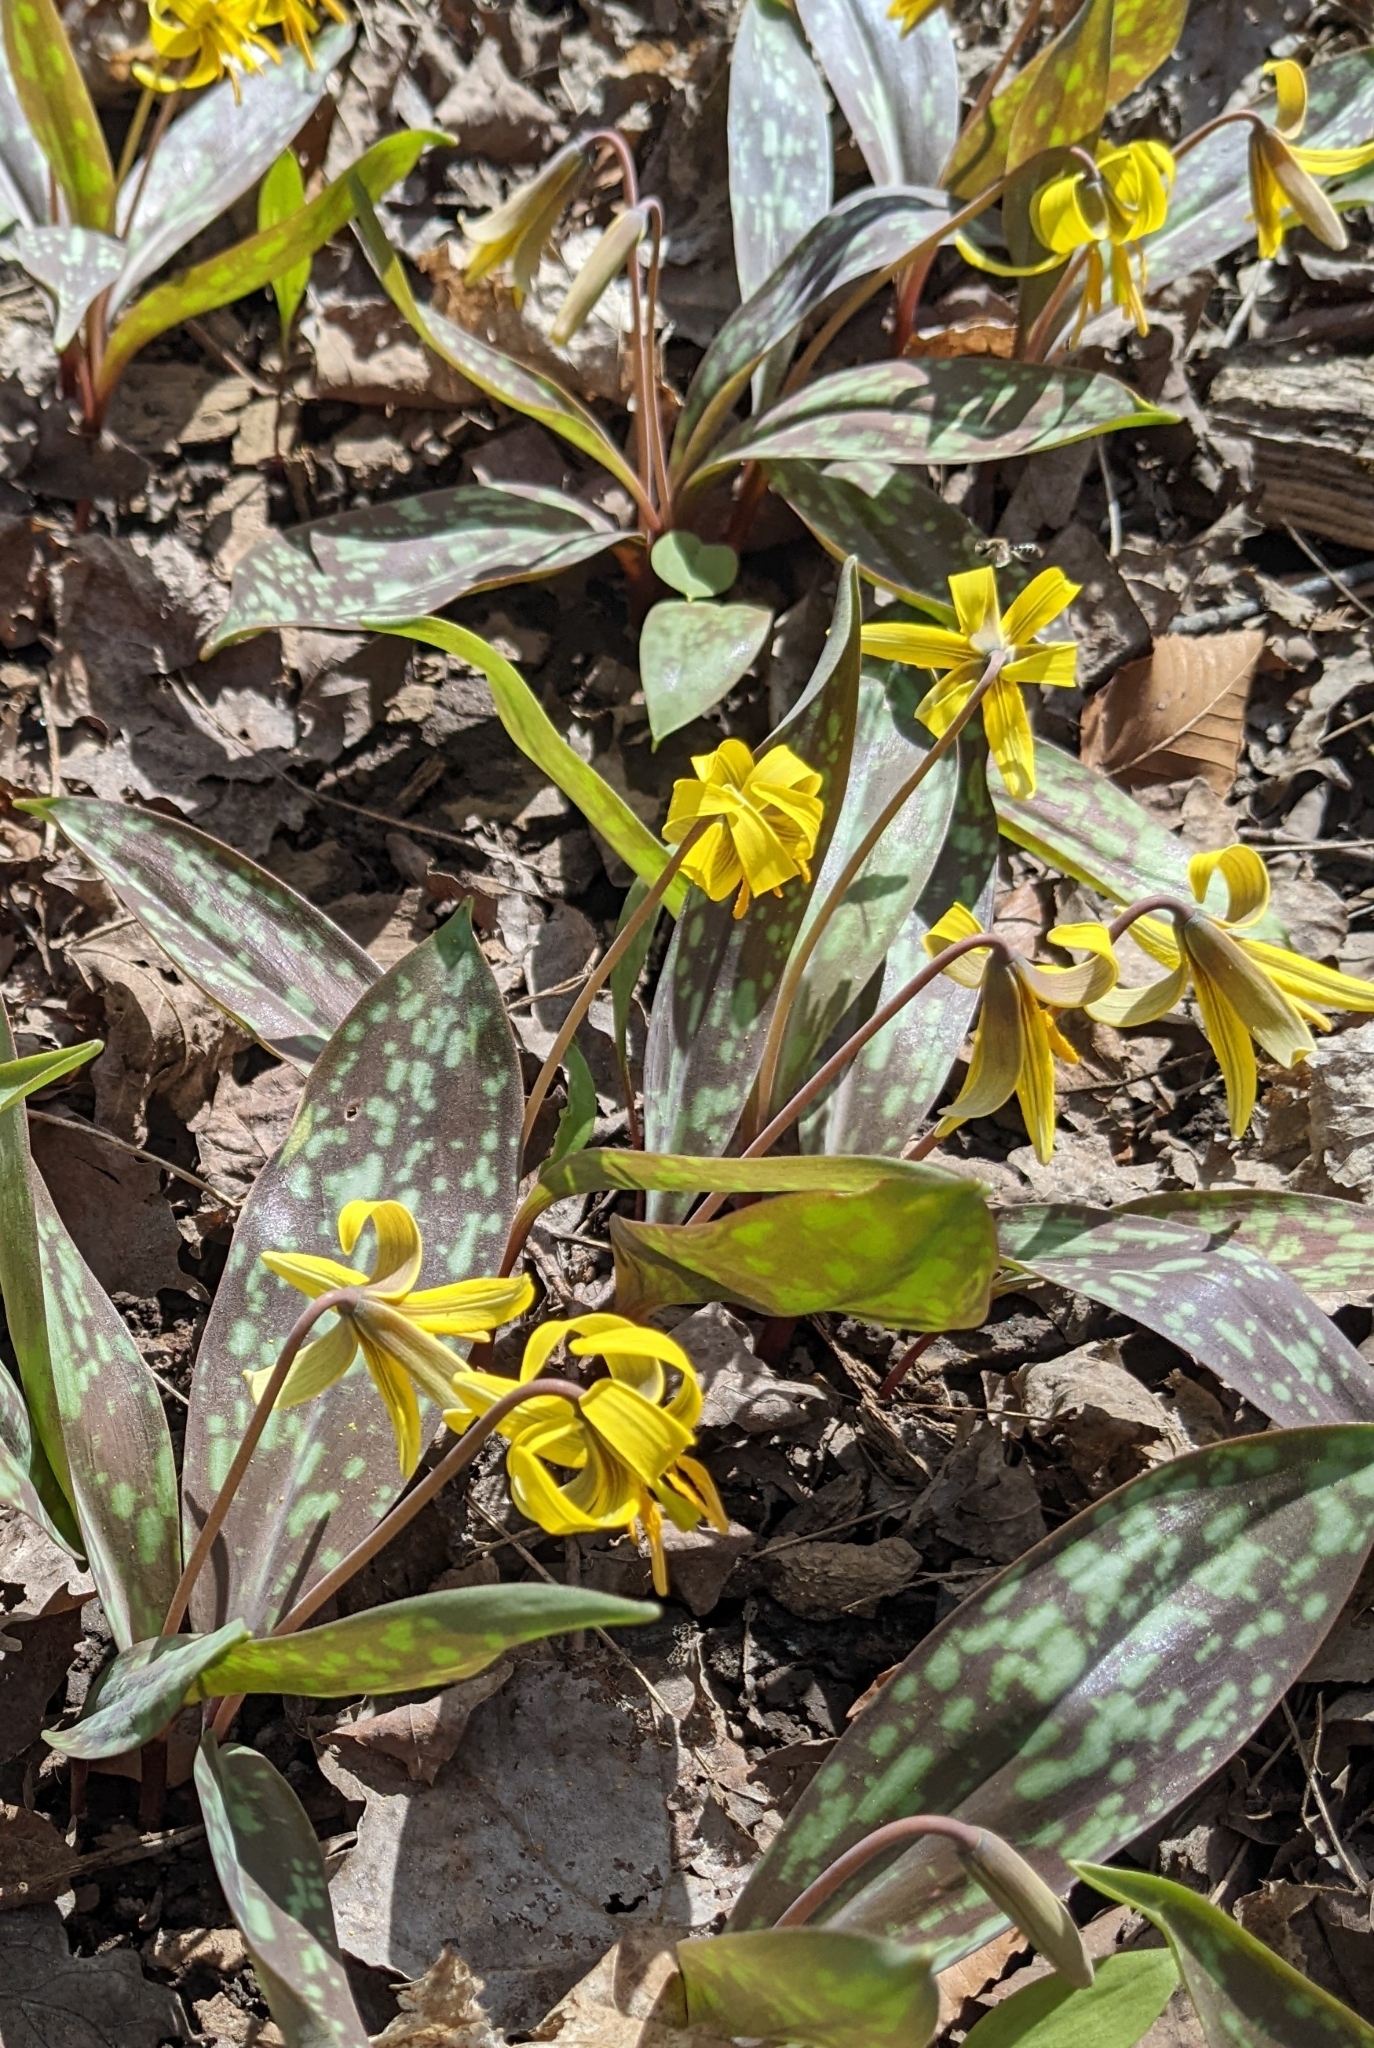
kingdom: Plantae
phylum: Tracheophyta
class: Liliopsida
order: Liliales
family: Liliaceae
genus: Erythronium
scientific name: Erythronium americanum
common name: Yellow adder's-tongue
